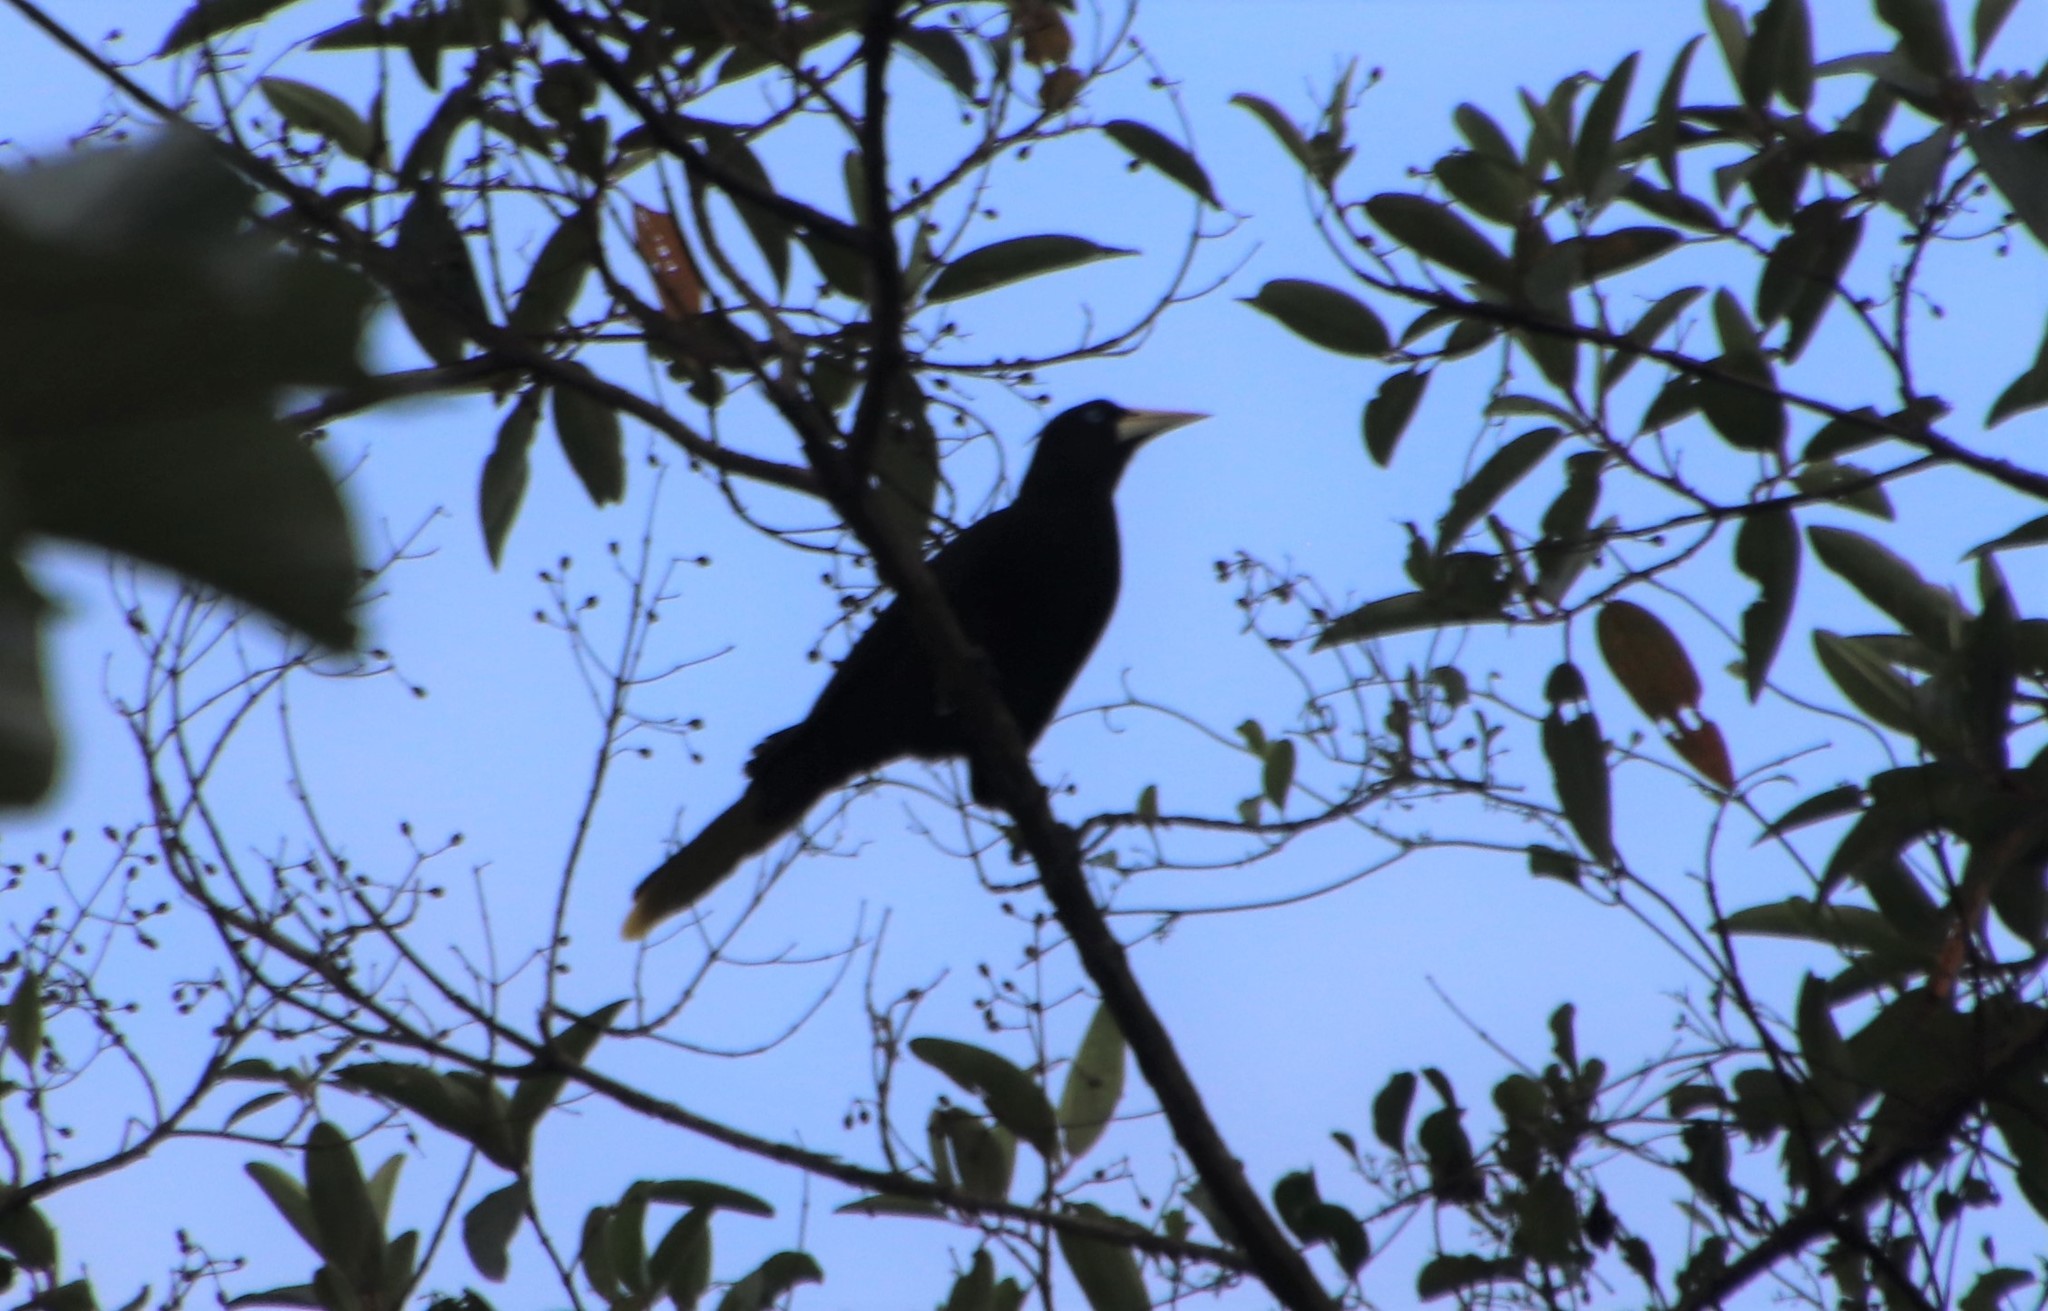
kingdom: Animalia
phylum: Chordata
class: Aves
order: Passeriformes
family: Icteridae
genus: Psarocolius
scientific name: Psarocolius decumanus
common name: Crested oropendola
